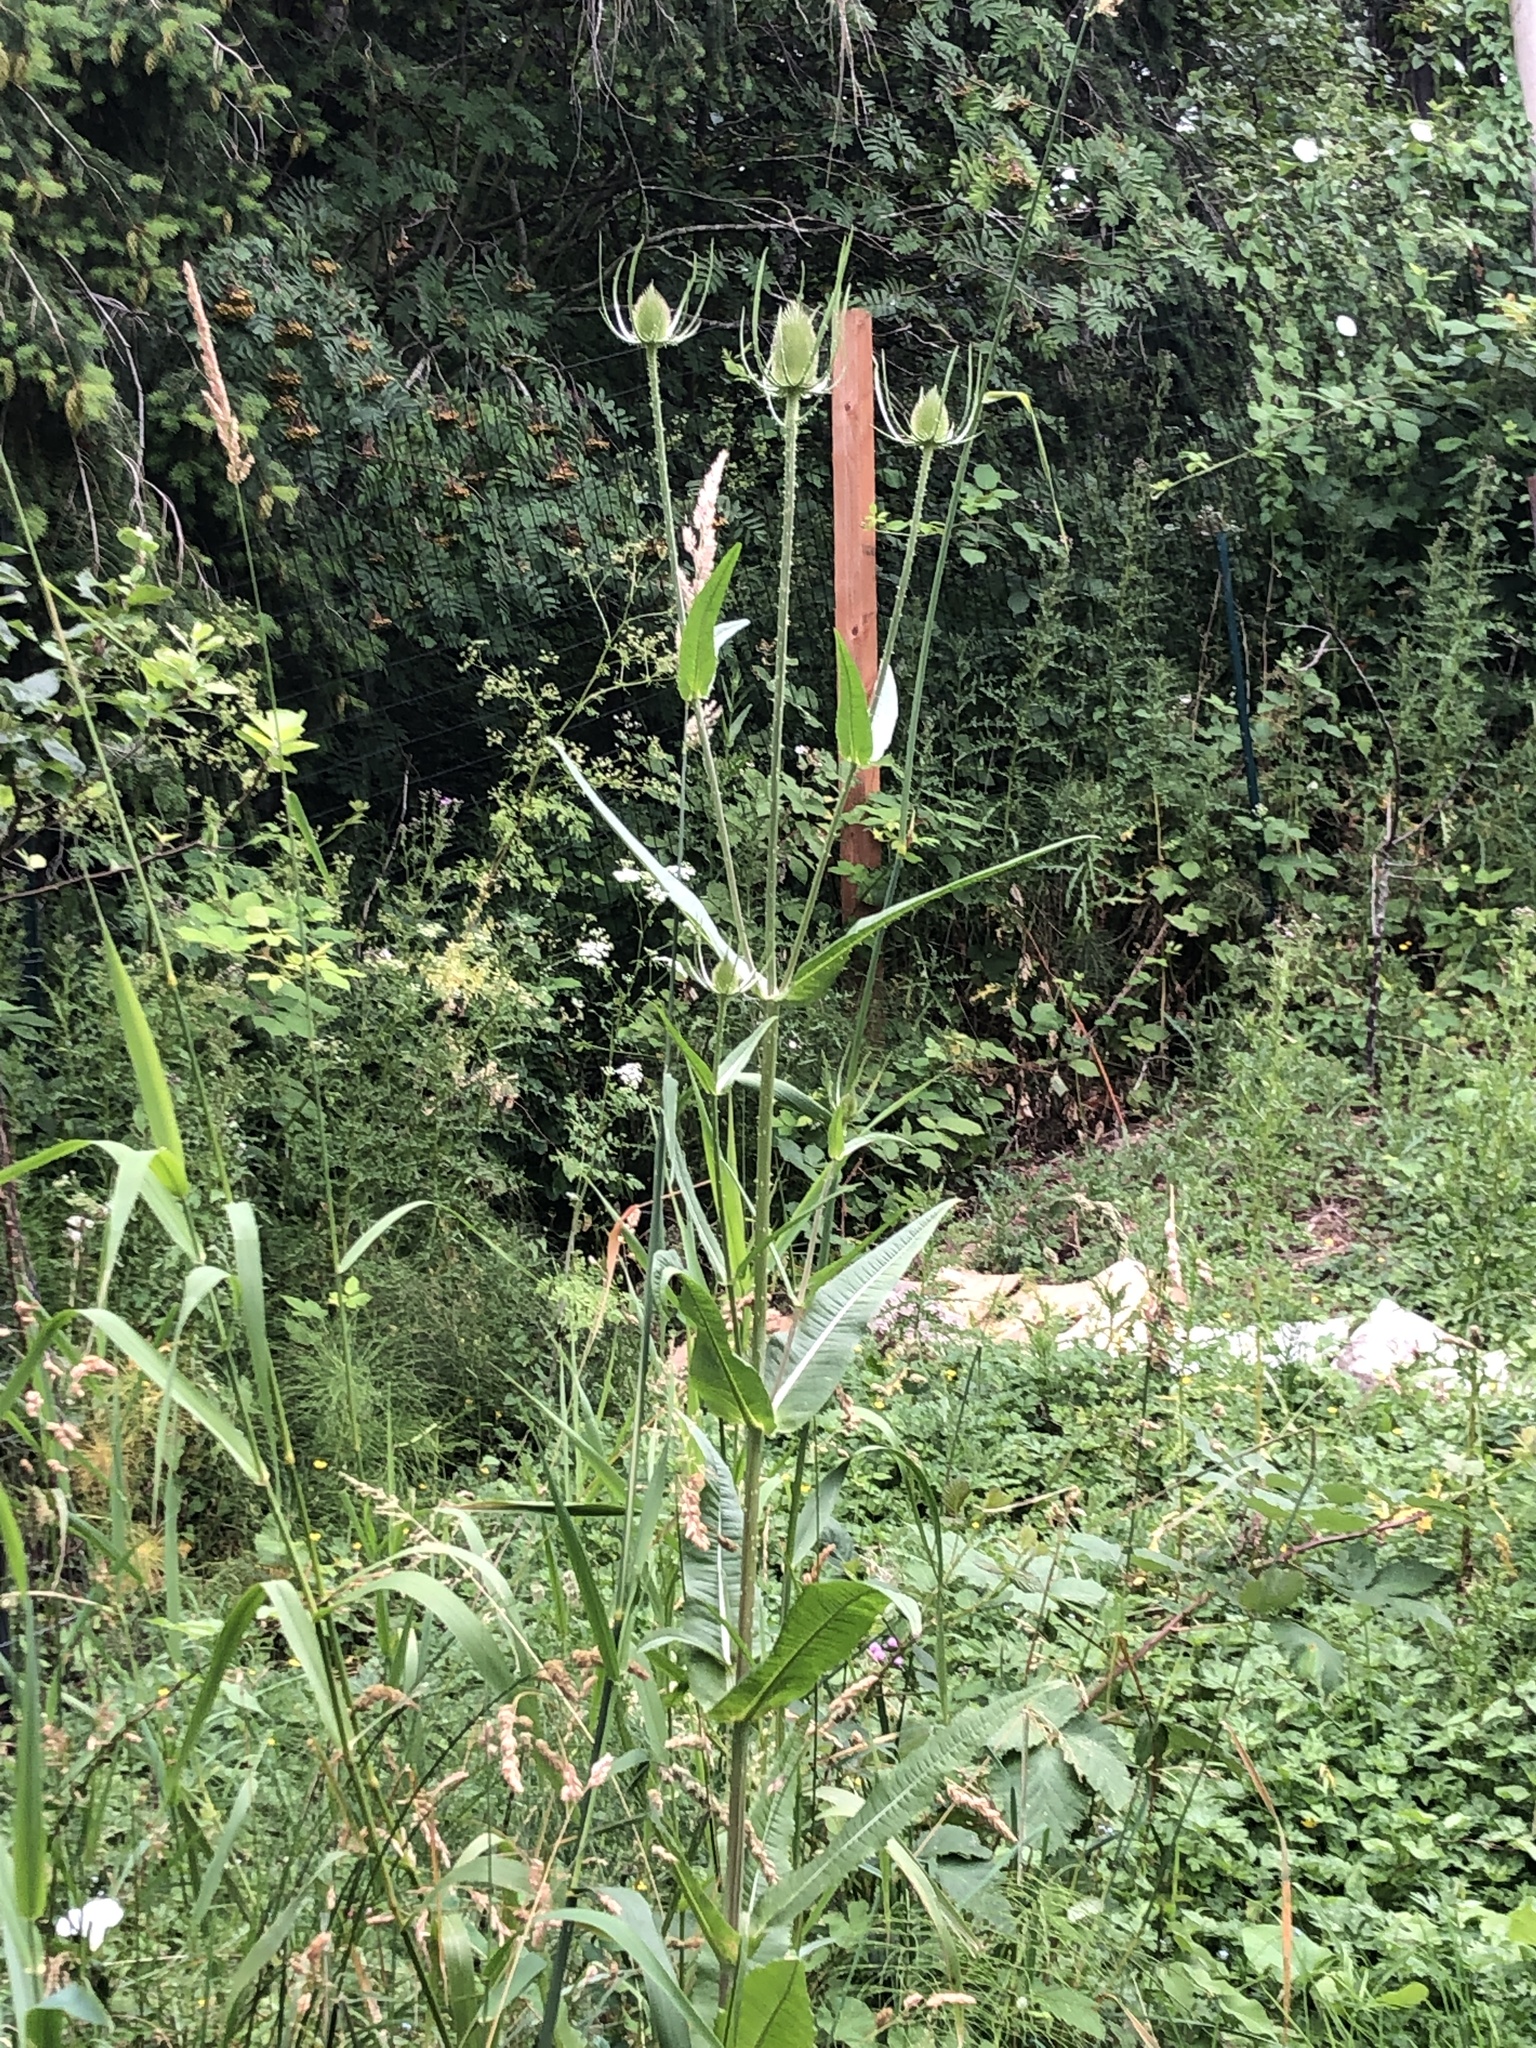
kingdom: Plantae
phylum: Tracheophyta
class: Magnoliopsida
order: Dipsacales
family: Caprifoliaceae
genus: Dipsacus
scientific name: Dipsacus fullonum
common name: Teasel
